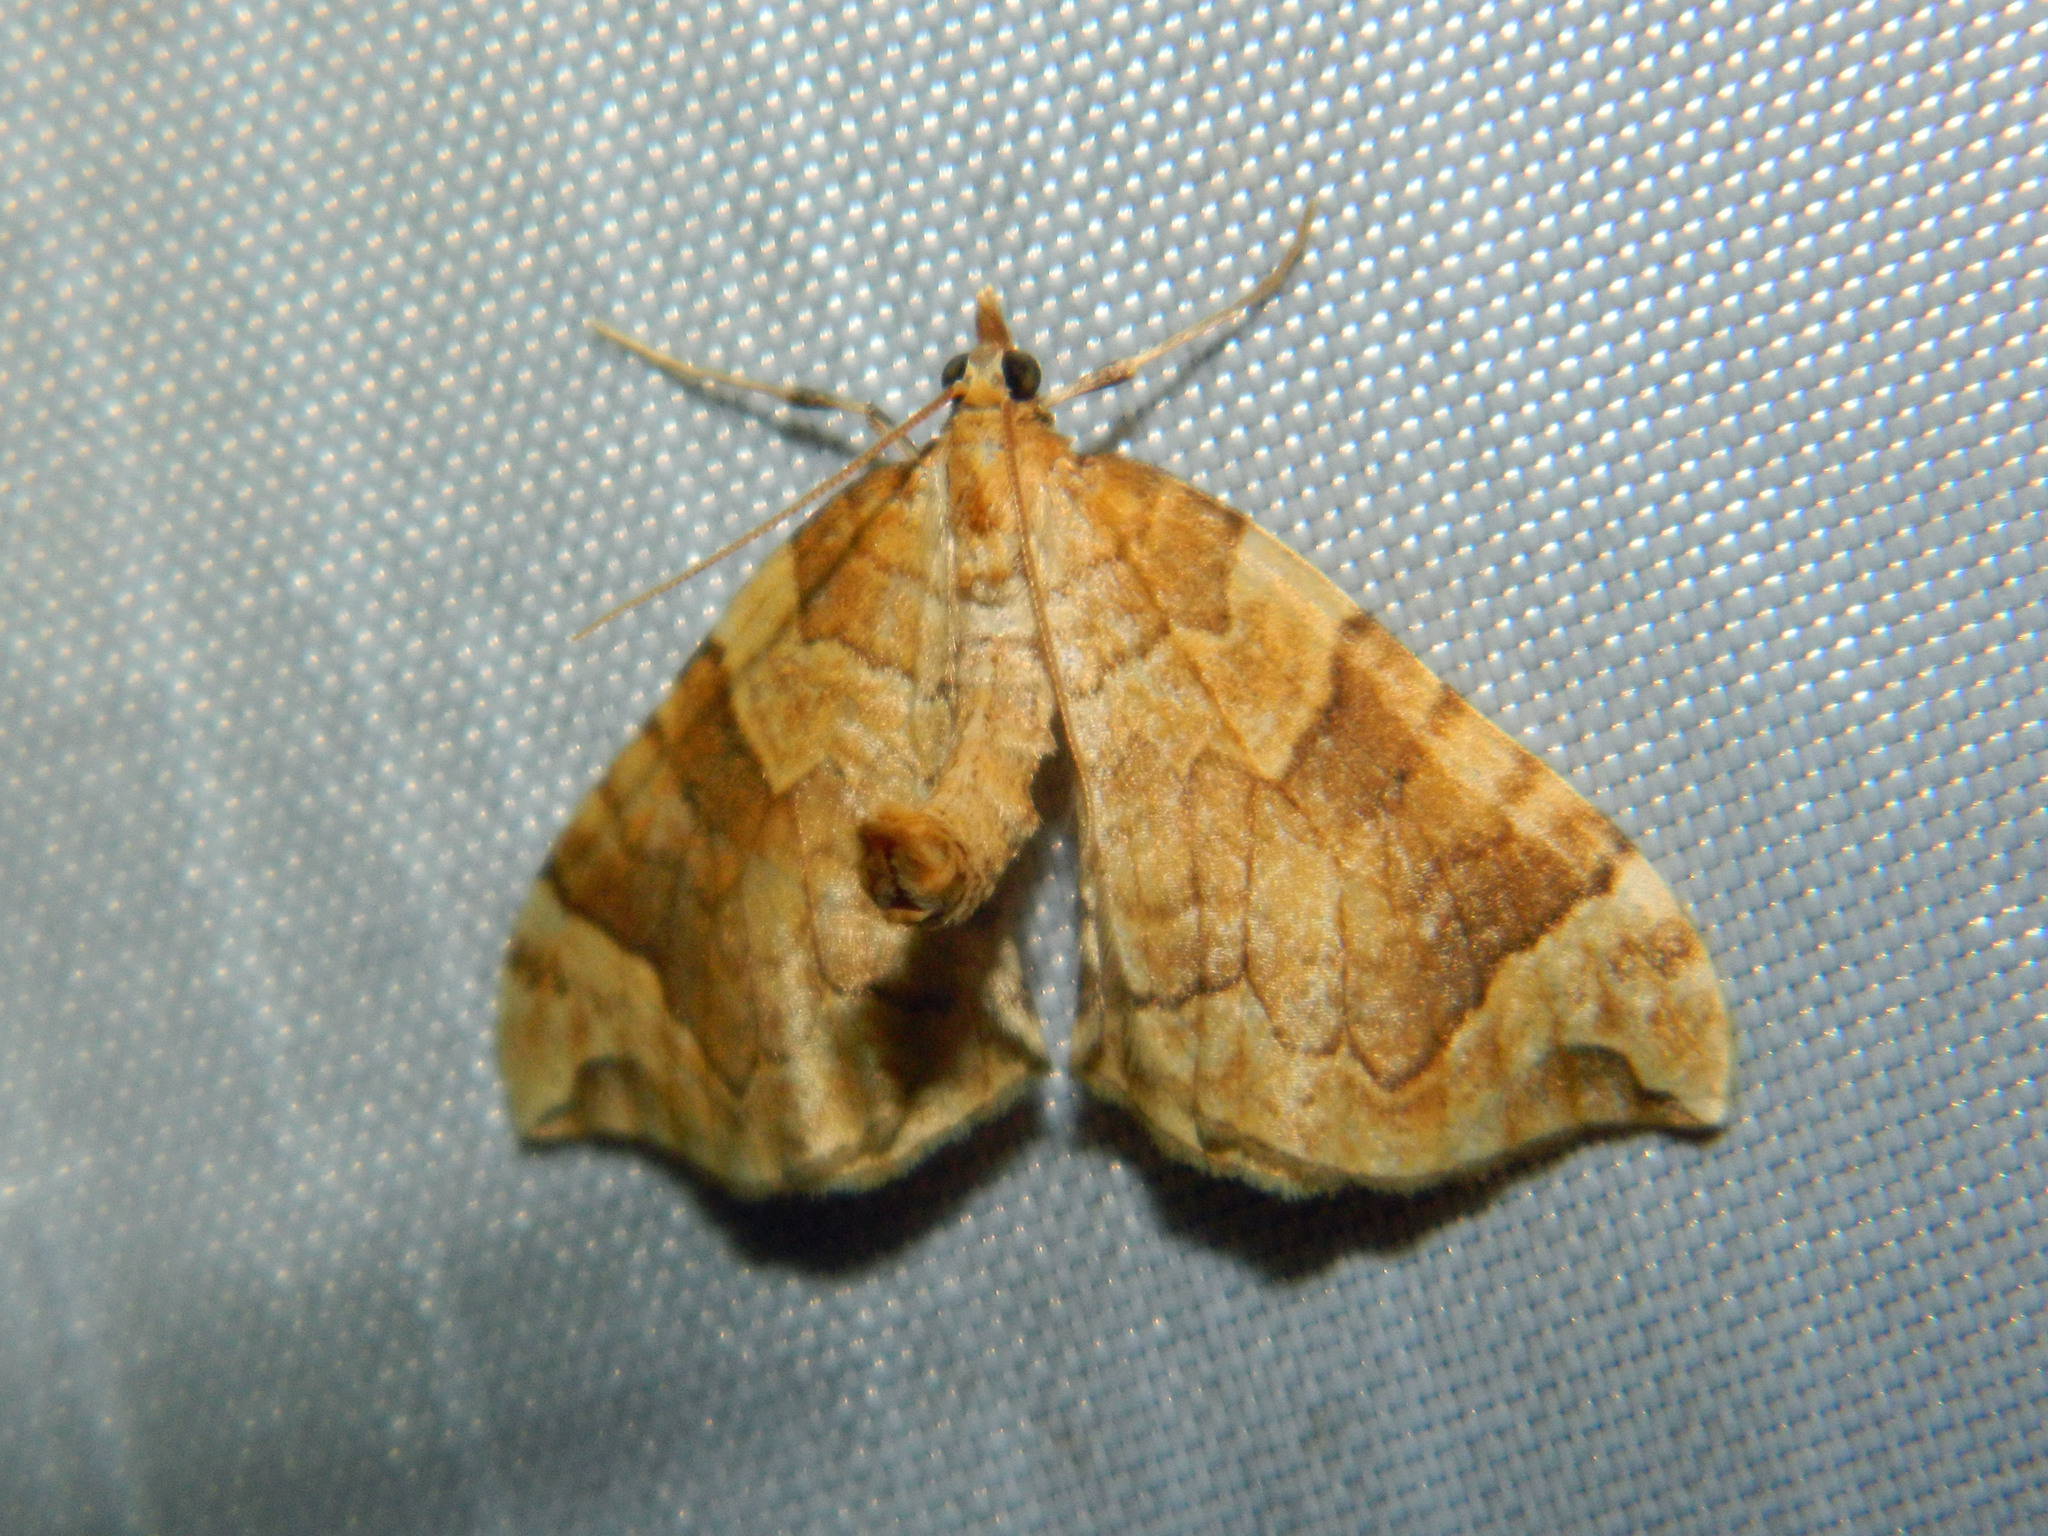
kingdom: Animalia
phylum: Arthropoda
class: Insecta
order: Lepidoptera
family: Geometridae
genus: Eulithis
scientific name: Eulithis propulsata
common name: Currant eulithis moth
